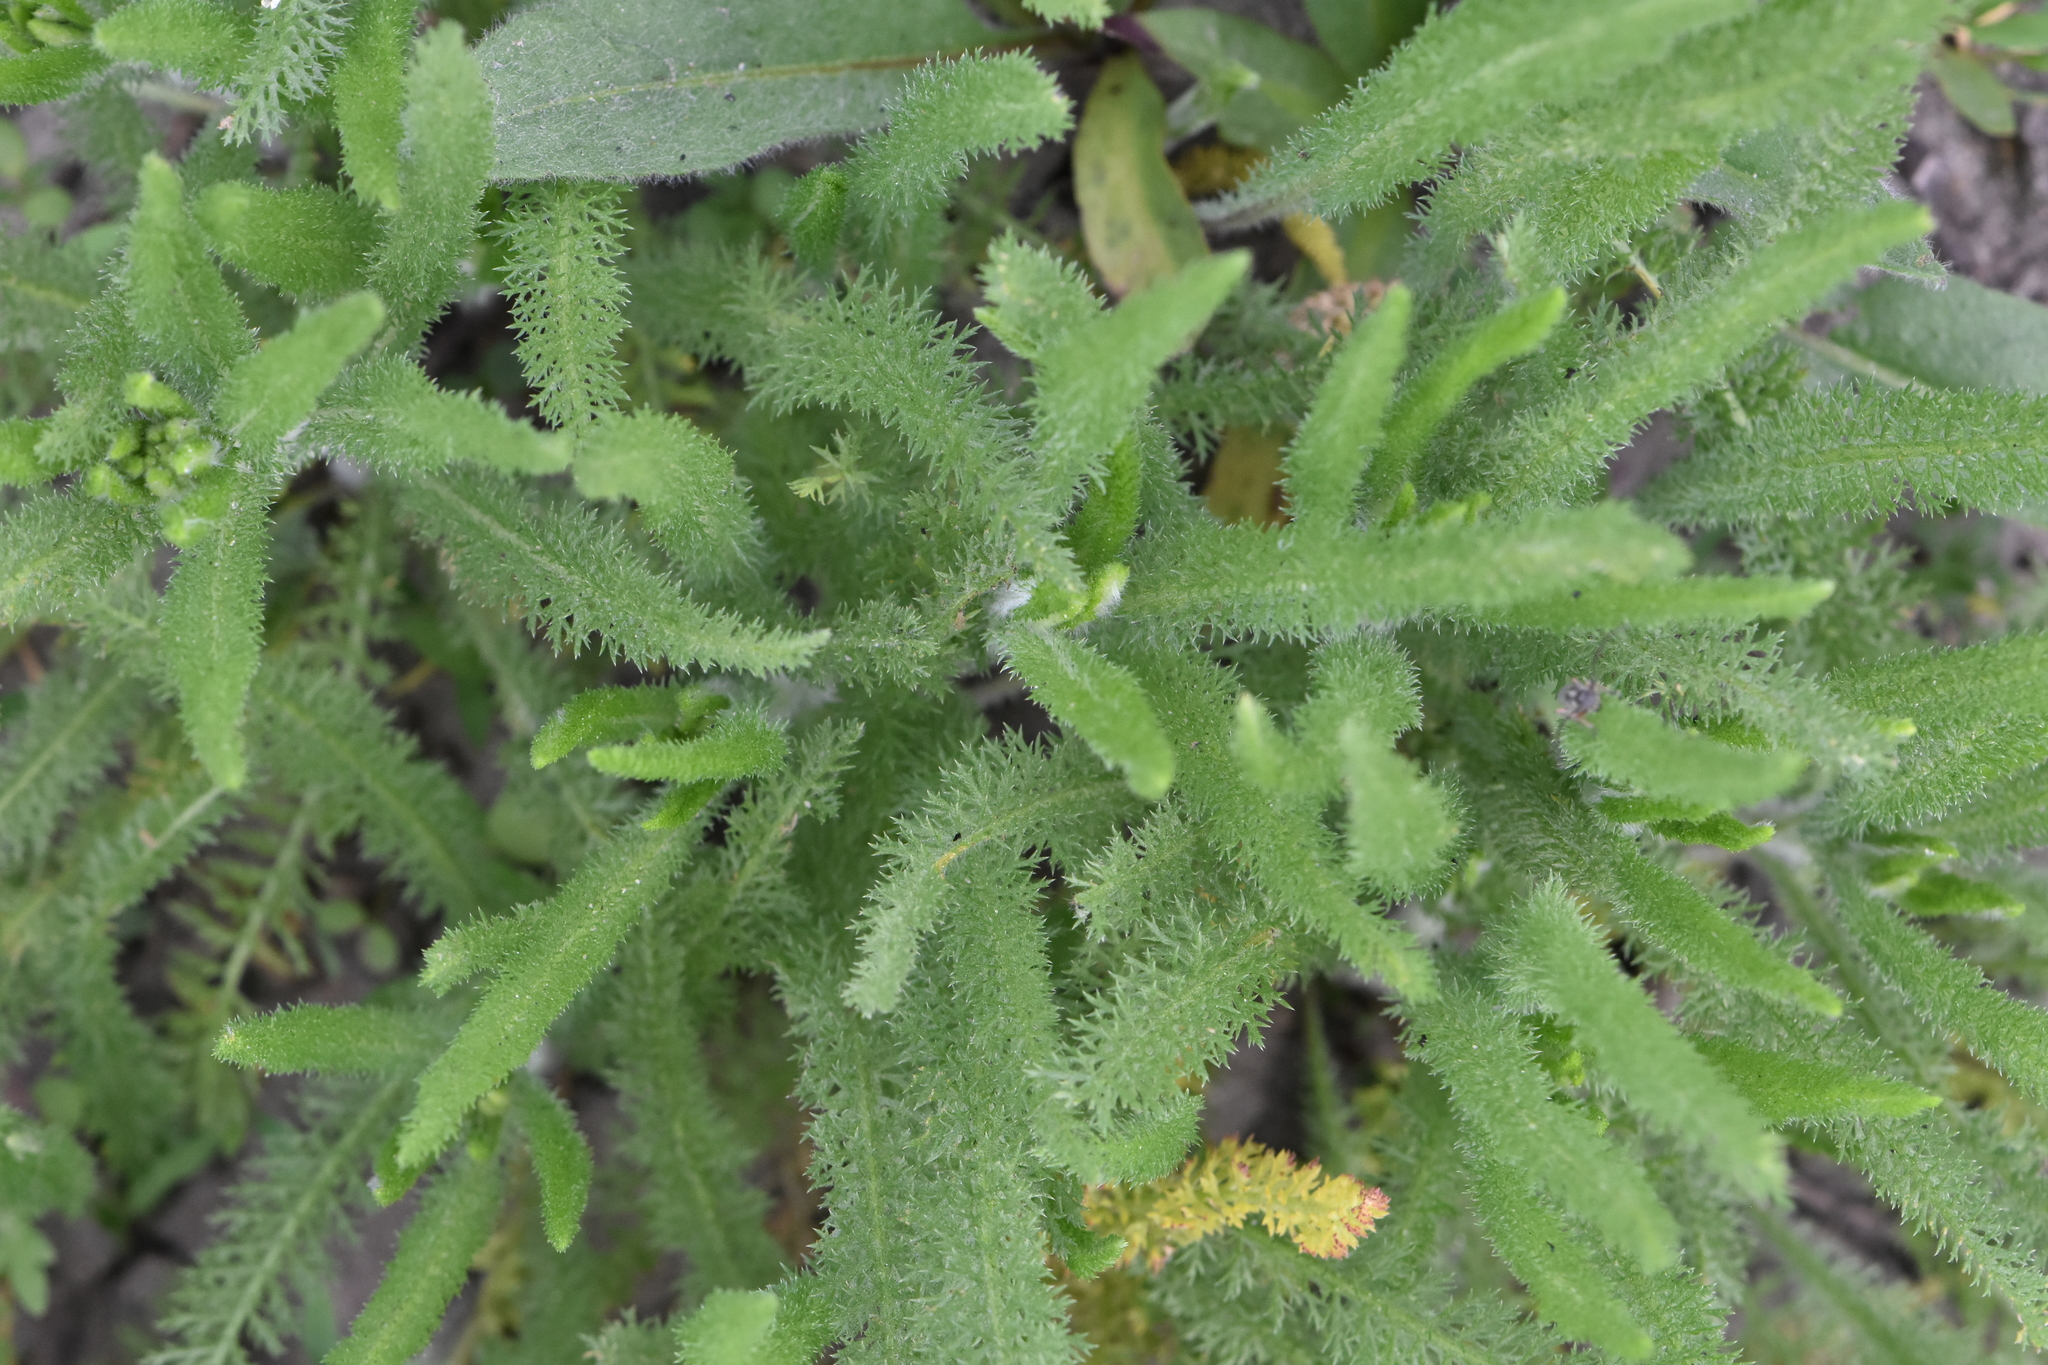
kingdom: Plantae
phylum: Tracheophyta
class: Magnoliopsida
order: Asterales
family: Asteraceae
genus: Achillea
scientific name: Achillea setacea
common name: Bristly yarrow
